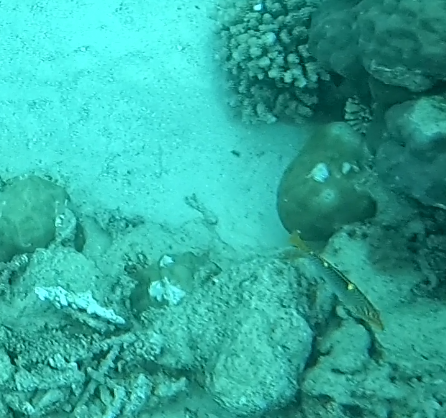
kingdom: Animalia
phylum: Chordata
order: Perciformes
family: Labridae
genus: Halichoeres
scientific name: Halichoeres hortulanus
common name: Checkerboard wrasse
